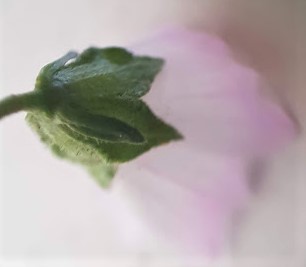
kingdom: Plantae
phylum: Tracheophyta
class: Magnoliopsida
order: Malvales
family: Malvaceae
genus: Malva
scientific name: Malva neglecta
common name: Common mallow
